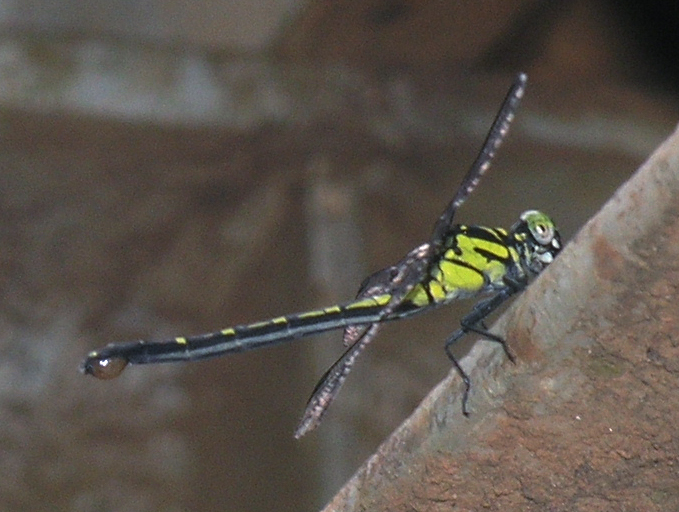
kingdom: Animalia
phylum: Arthropoda
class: Insecta
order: Odonata
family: Gomphidae
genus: Burmagomphus
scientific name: Burmagomphus divaricatus
